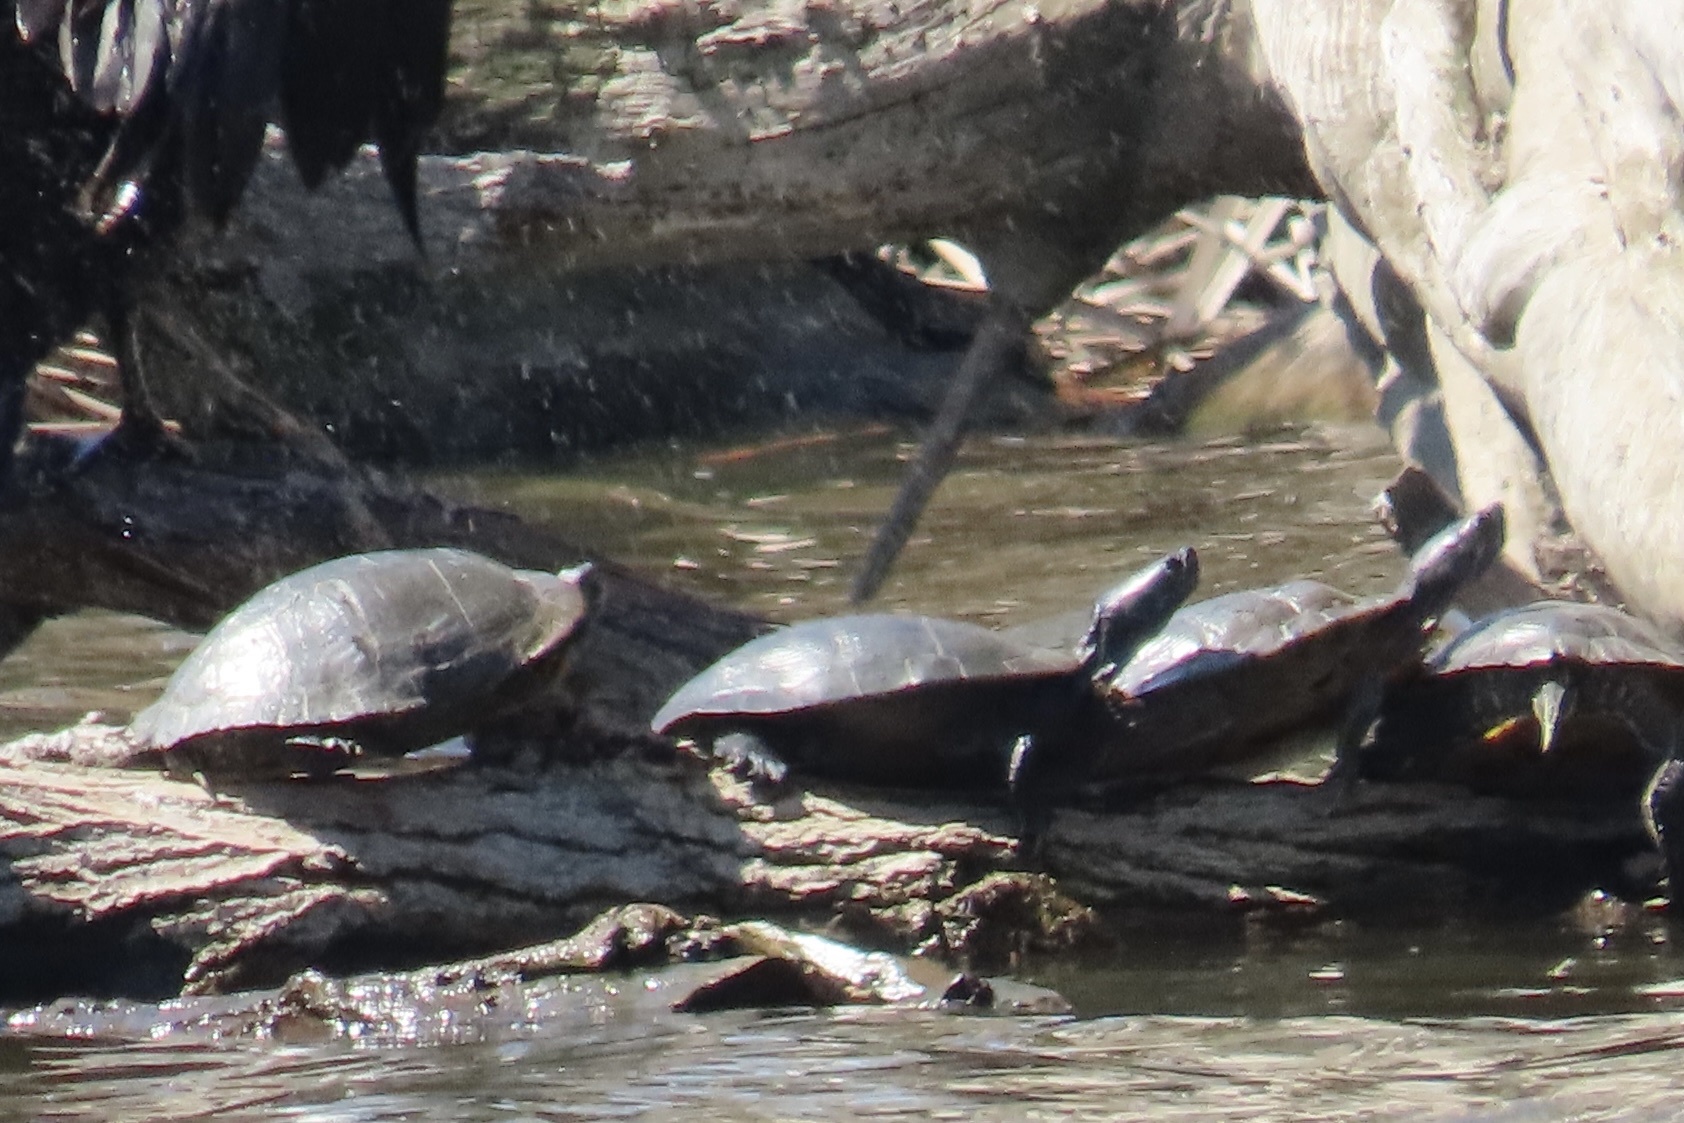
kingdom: Animalia
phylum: Chordata
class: Testudines
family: Emydidae
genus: Trachemys
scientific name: Trachemys scripta
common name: Slider
